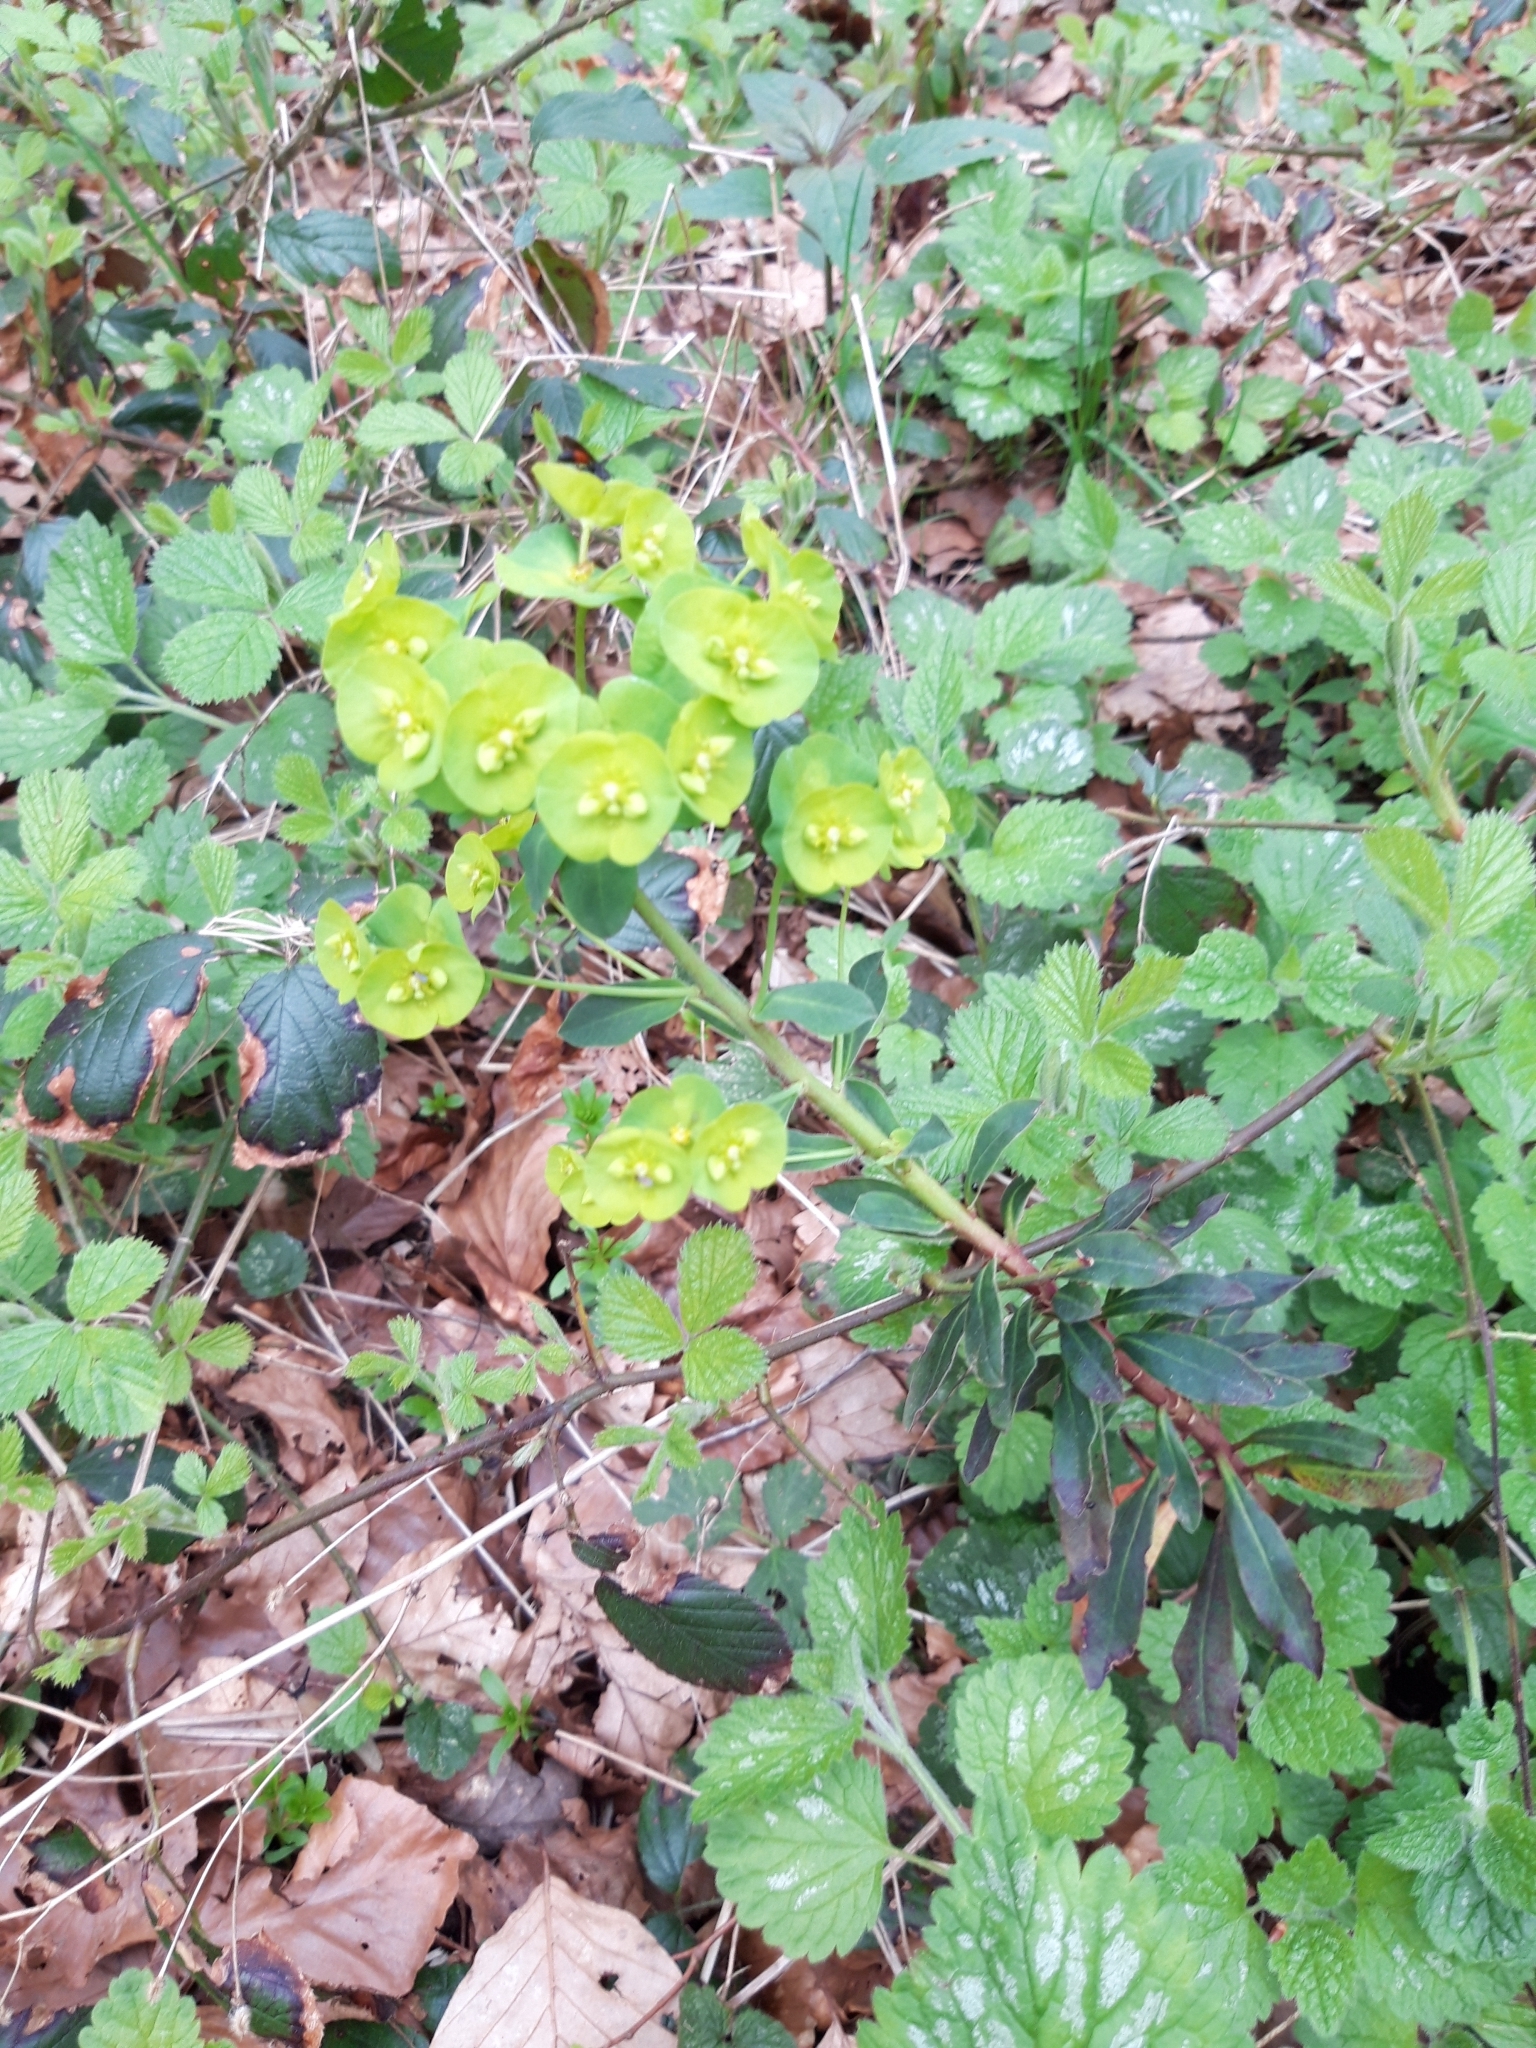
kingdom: Plantae
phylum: Tracheophyta
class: Magnoliopsida
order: Malpighiales
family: Euphorbiaceae
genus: Euphorbia
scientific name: Euphorbia amygdaloides
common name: Wood spurge
